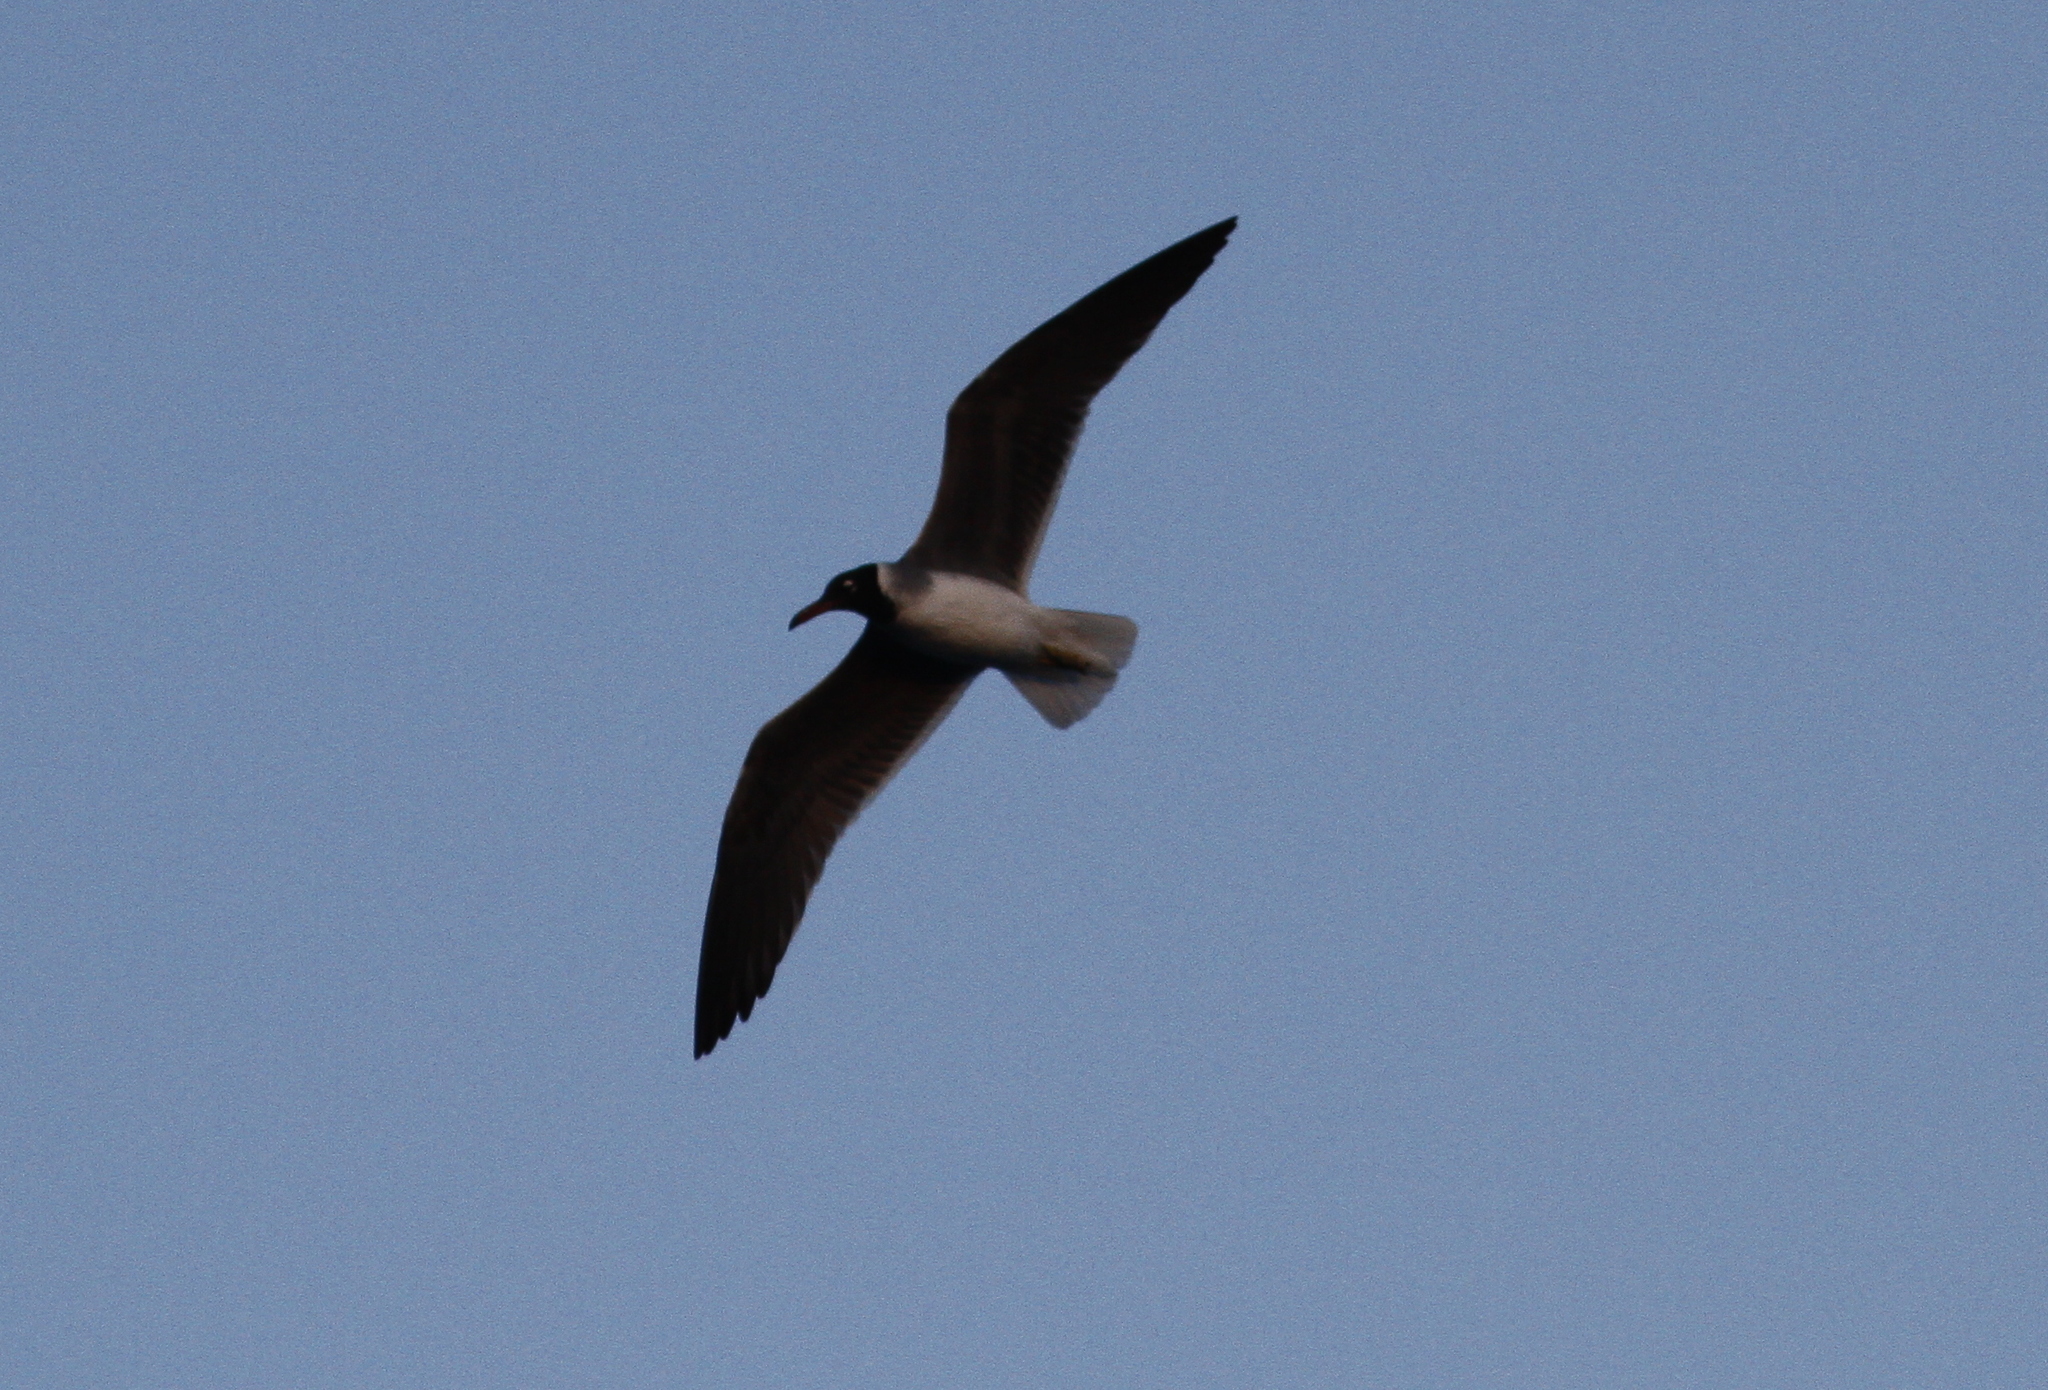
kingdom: Animalia
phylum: Chordata
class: Aves
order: Charadriiformes
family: Laridae
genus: Ichthyaetus
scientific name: Ichthyaetus leucophthalmus
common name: White-eyed gull
